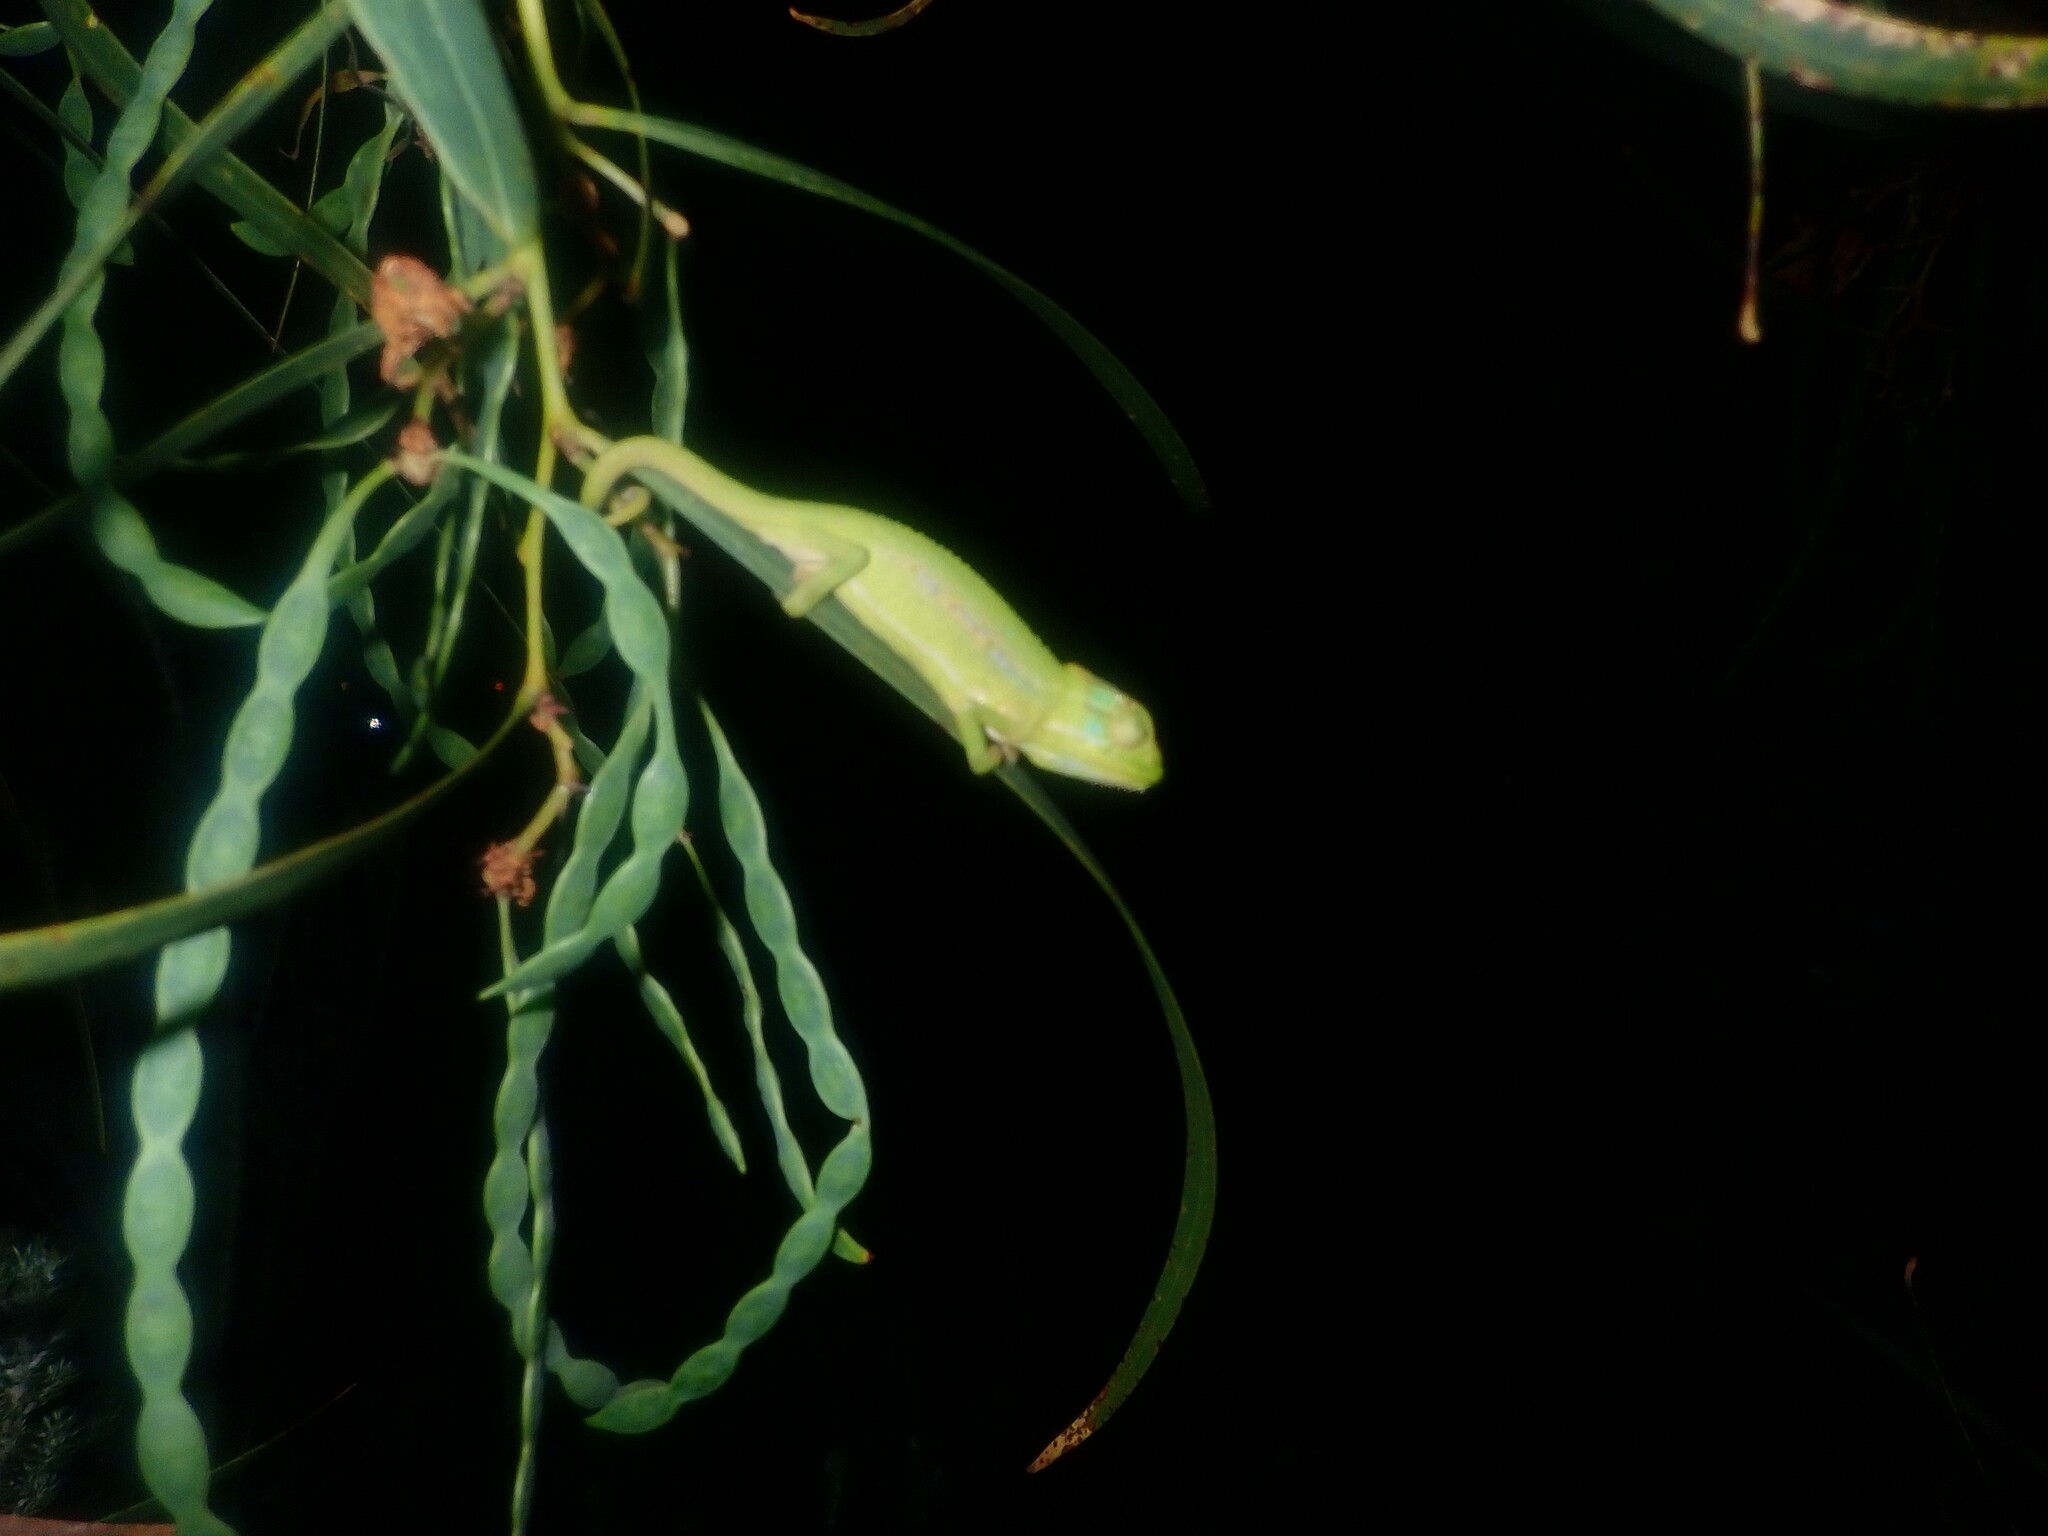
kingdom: Animalia
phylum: Chordata
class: Squamata
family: Chamaeleonidae
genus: Bradypodion
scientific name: Bradypodion pumilum
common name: Cape dwarf chameleon
